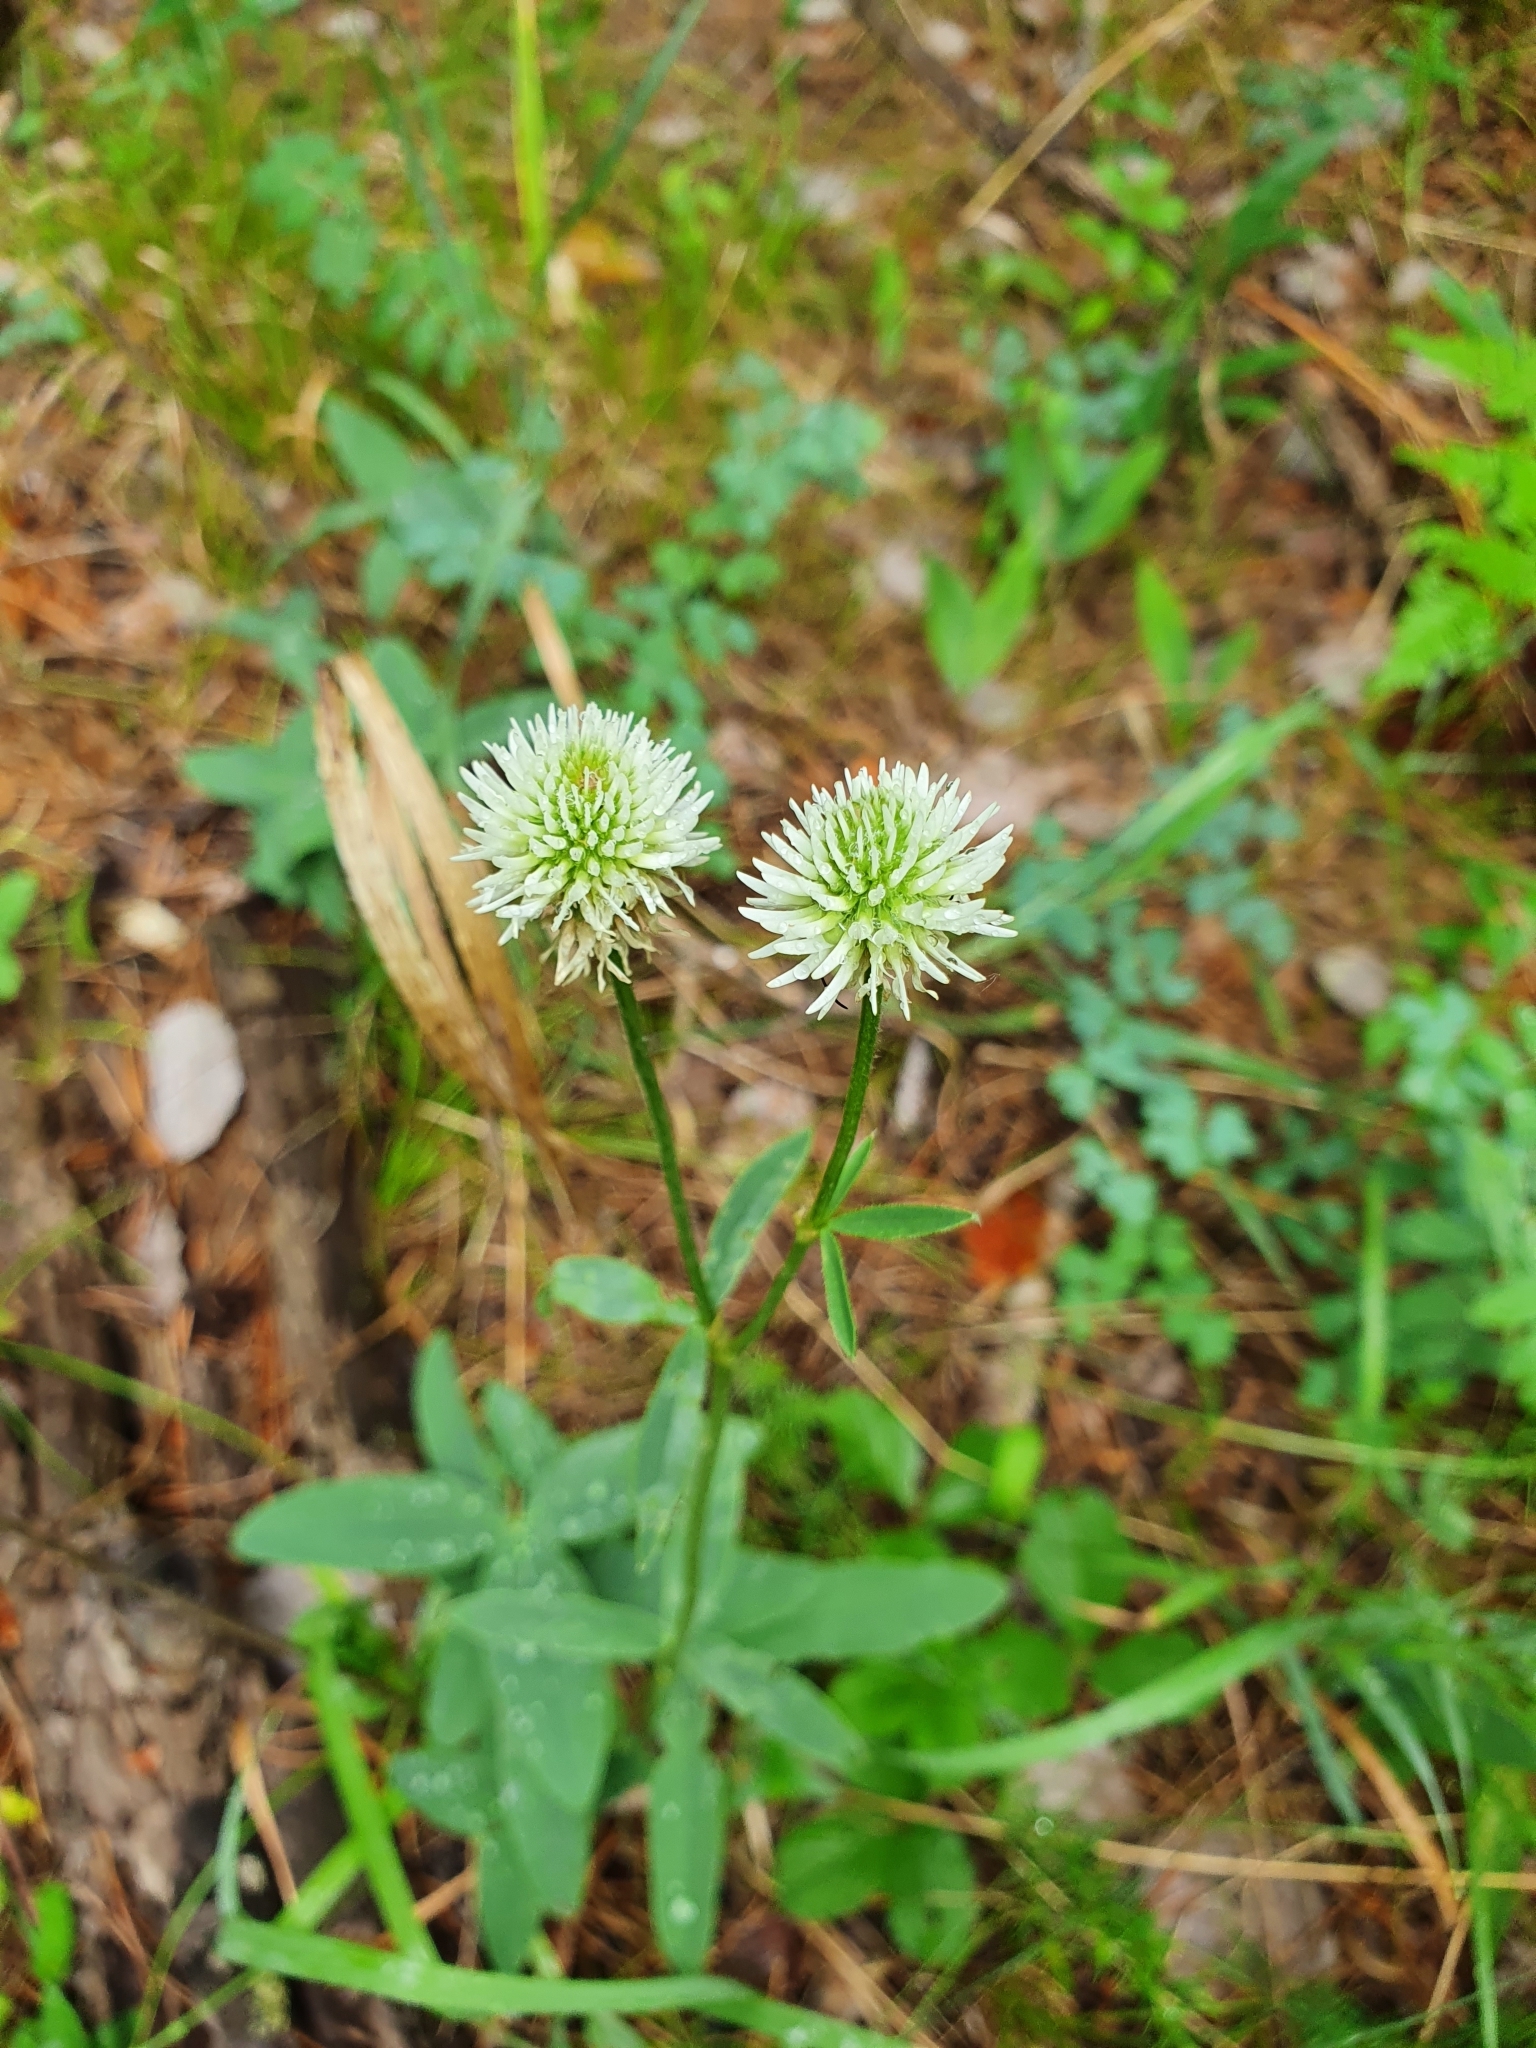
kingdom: Plantae
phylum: Tracheophyta
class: Magnoliopsida
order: Fabales
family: Fabaceae
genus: Trifolium
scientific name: Trifolium montanum
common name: Mountain clover
